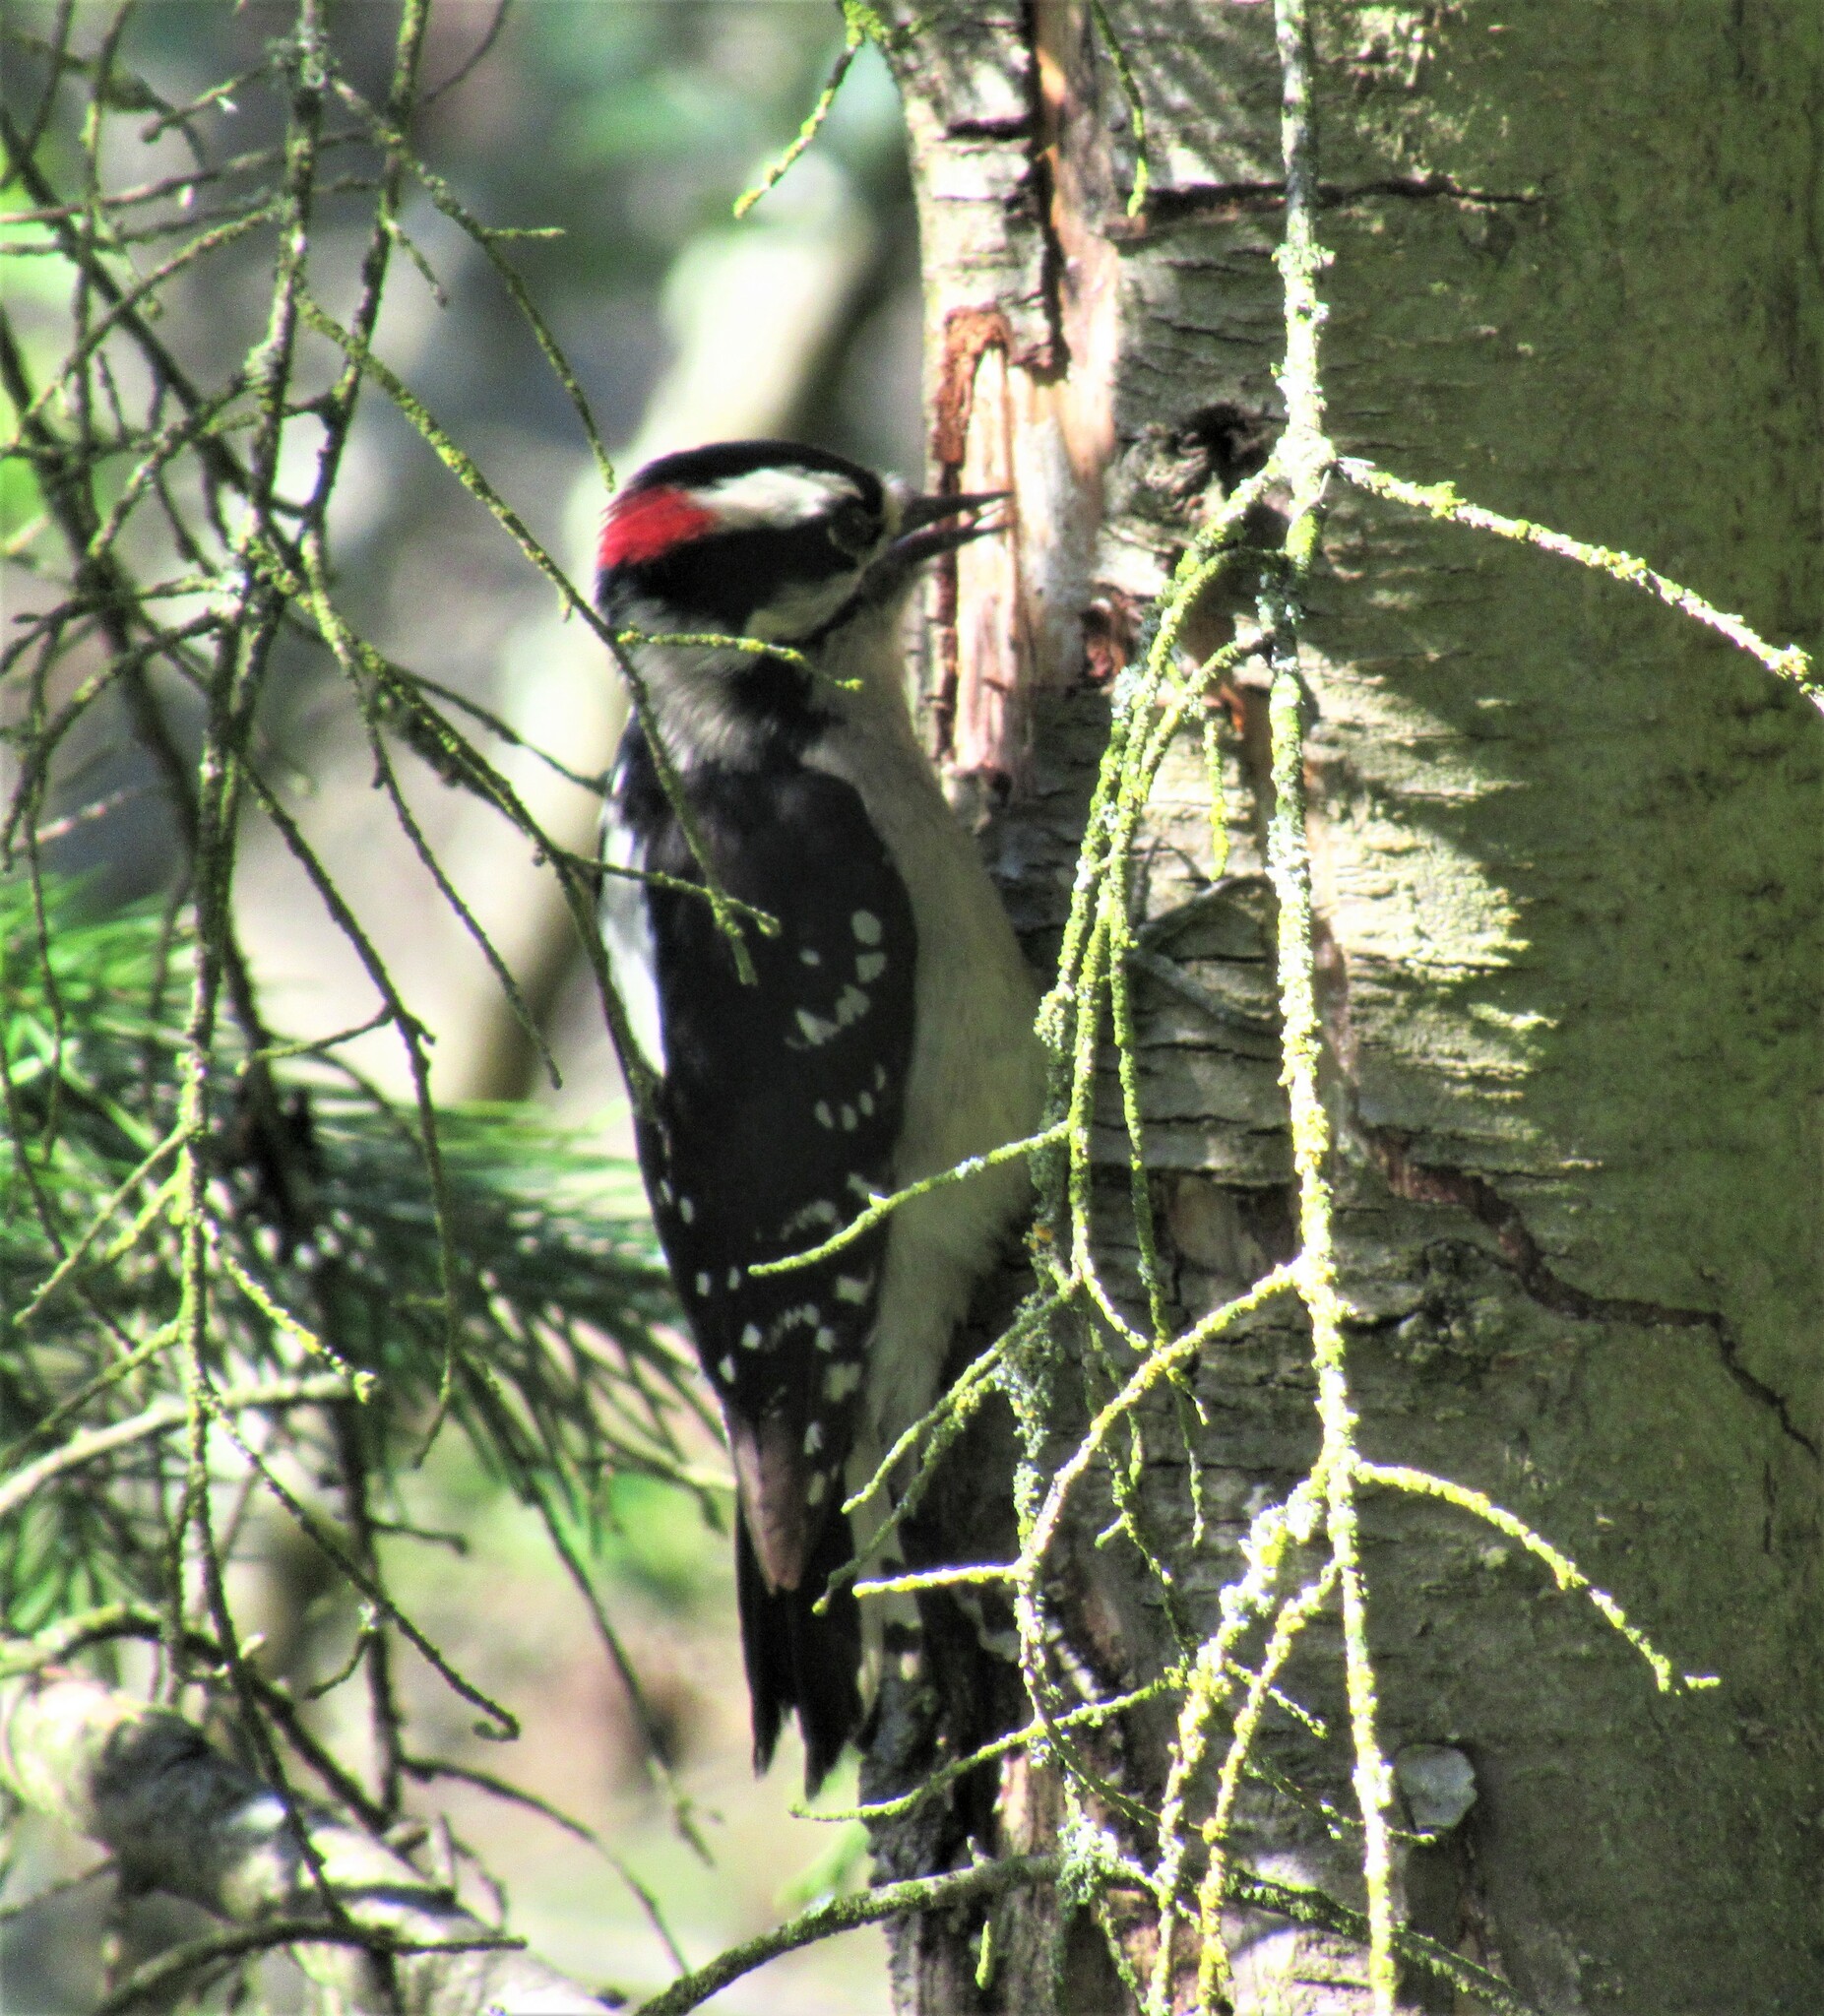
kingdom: Animalia
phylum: Chordata
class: Aves
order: Piciformes
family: Picidae
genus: Dryobates
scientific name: Dryobates pubescens
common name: Downy woodpecker
